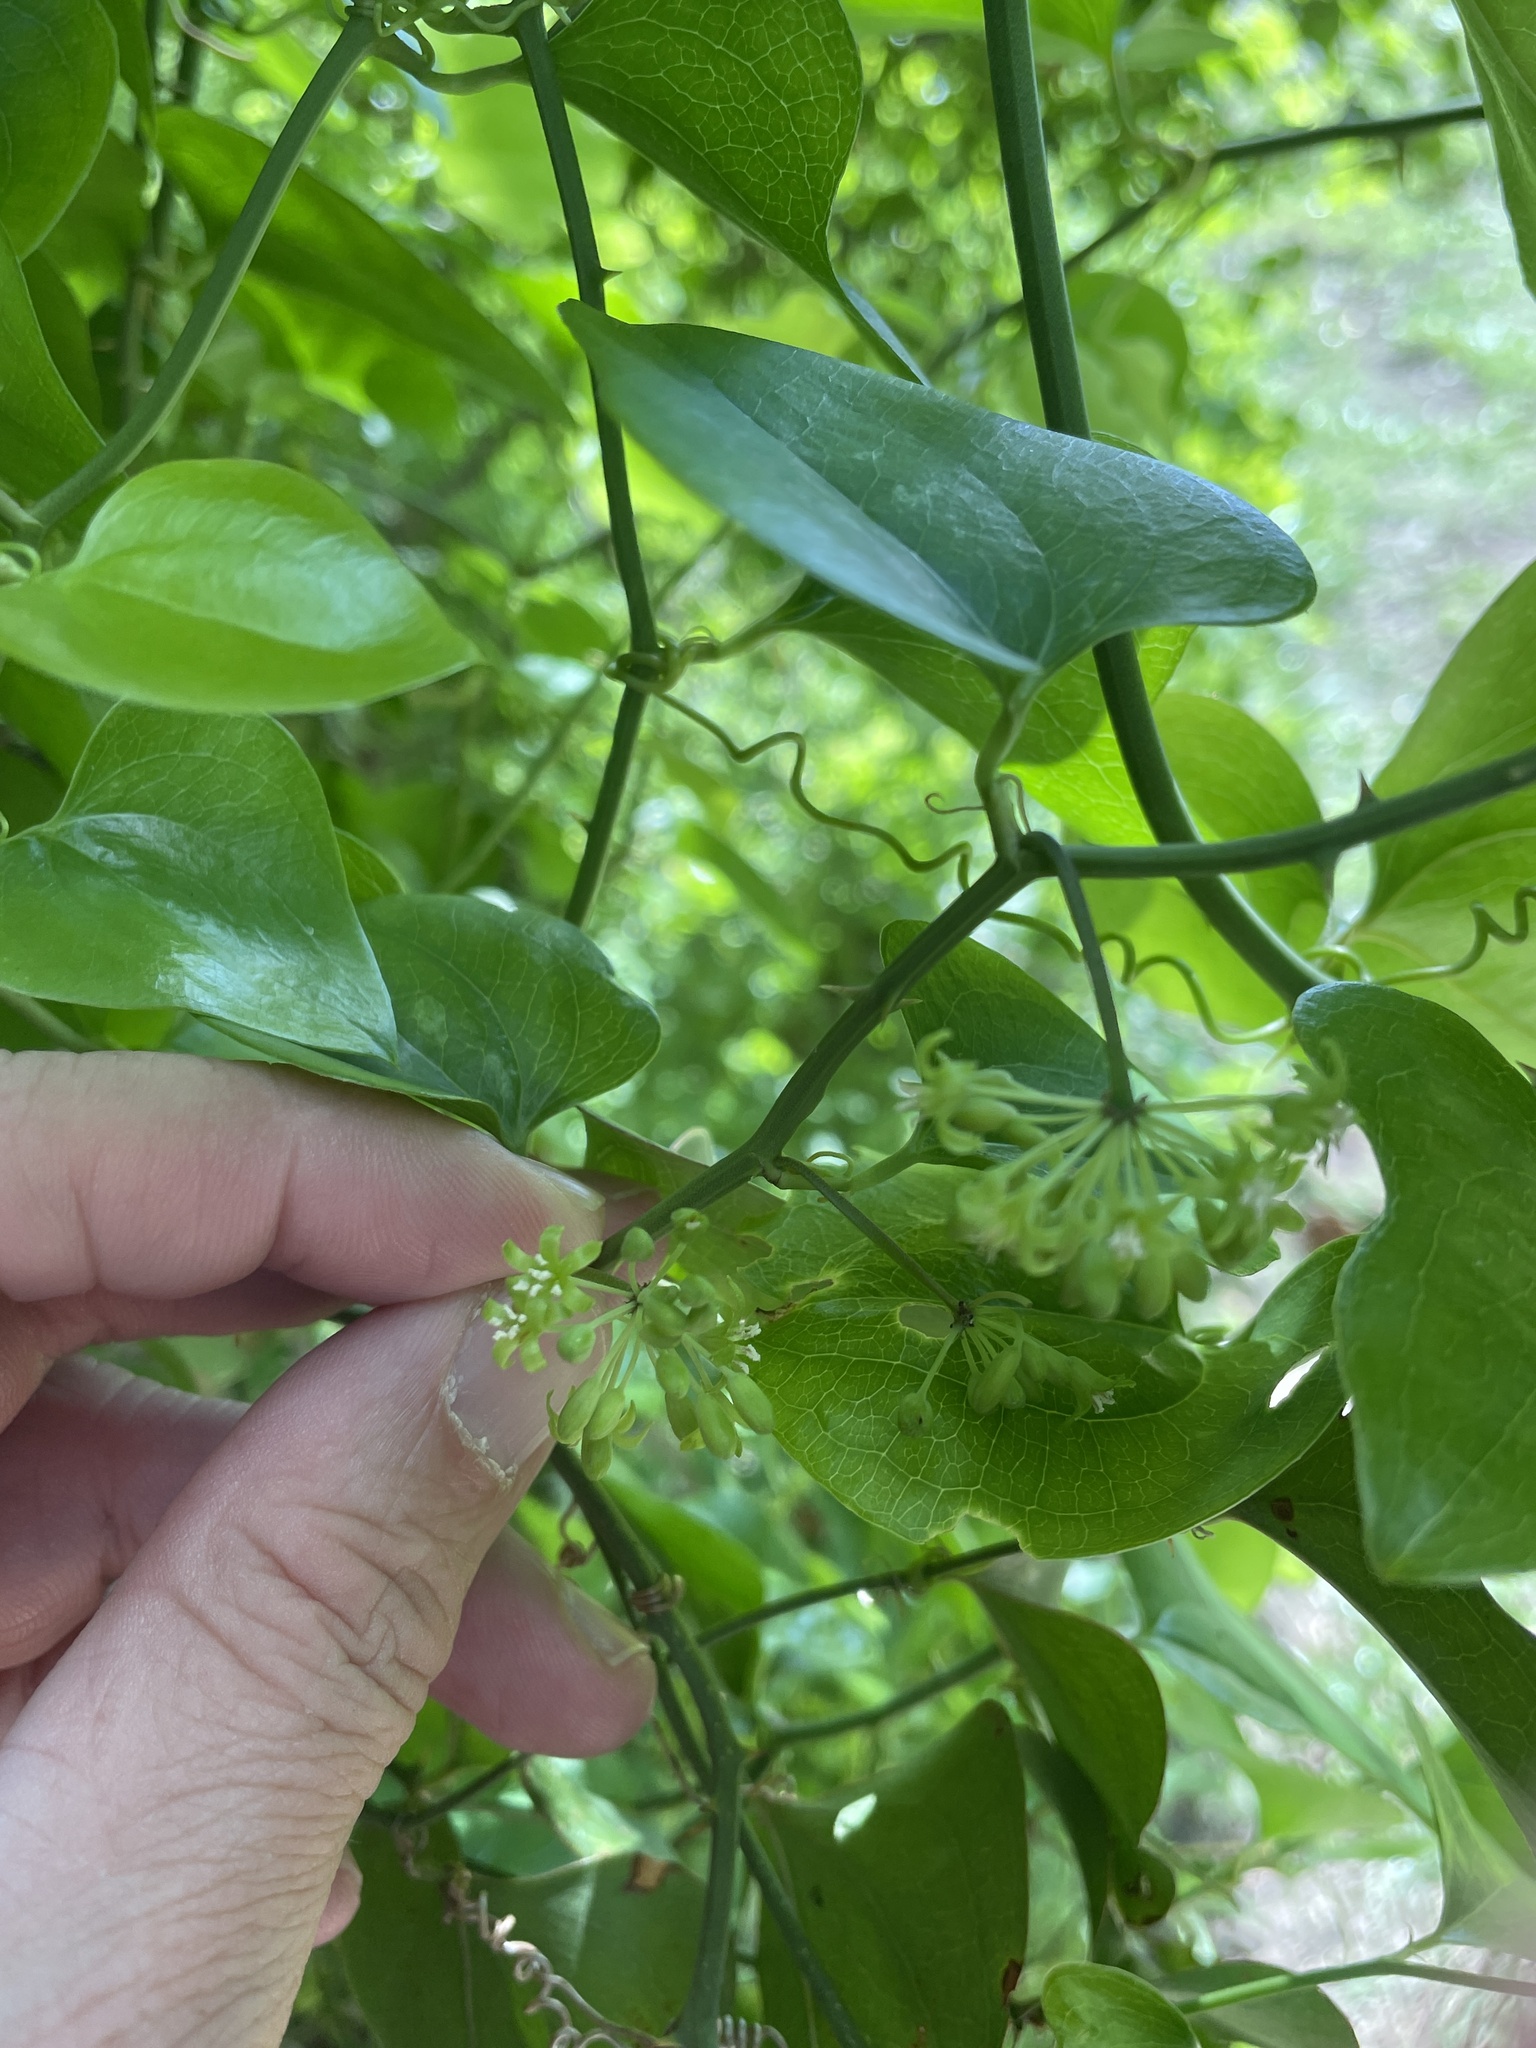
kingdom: Plantae
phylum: Tracheophyta
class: Liliopsida
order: Liliales
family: Smilacaceae
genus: Smilax
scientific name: Smilax bona-nox
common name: Catbrier
